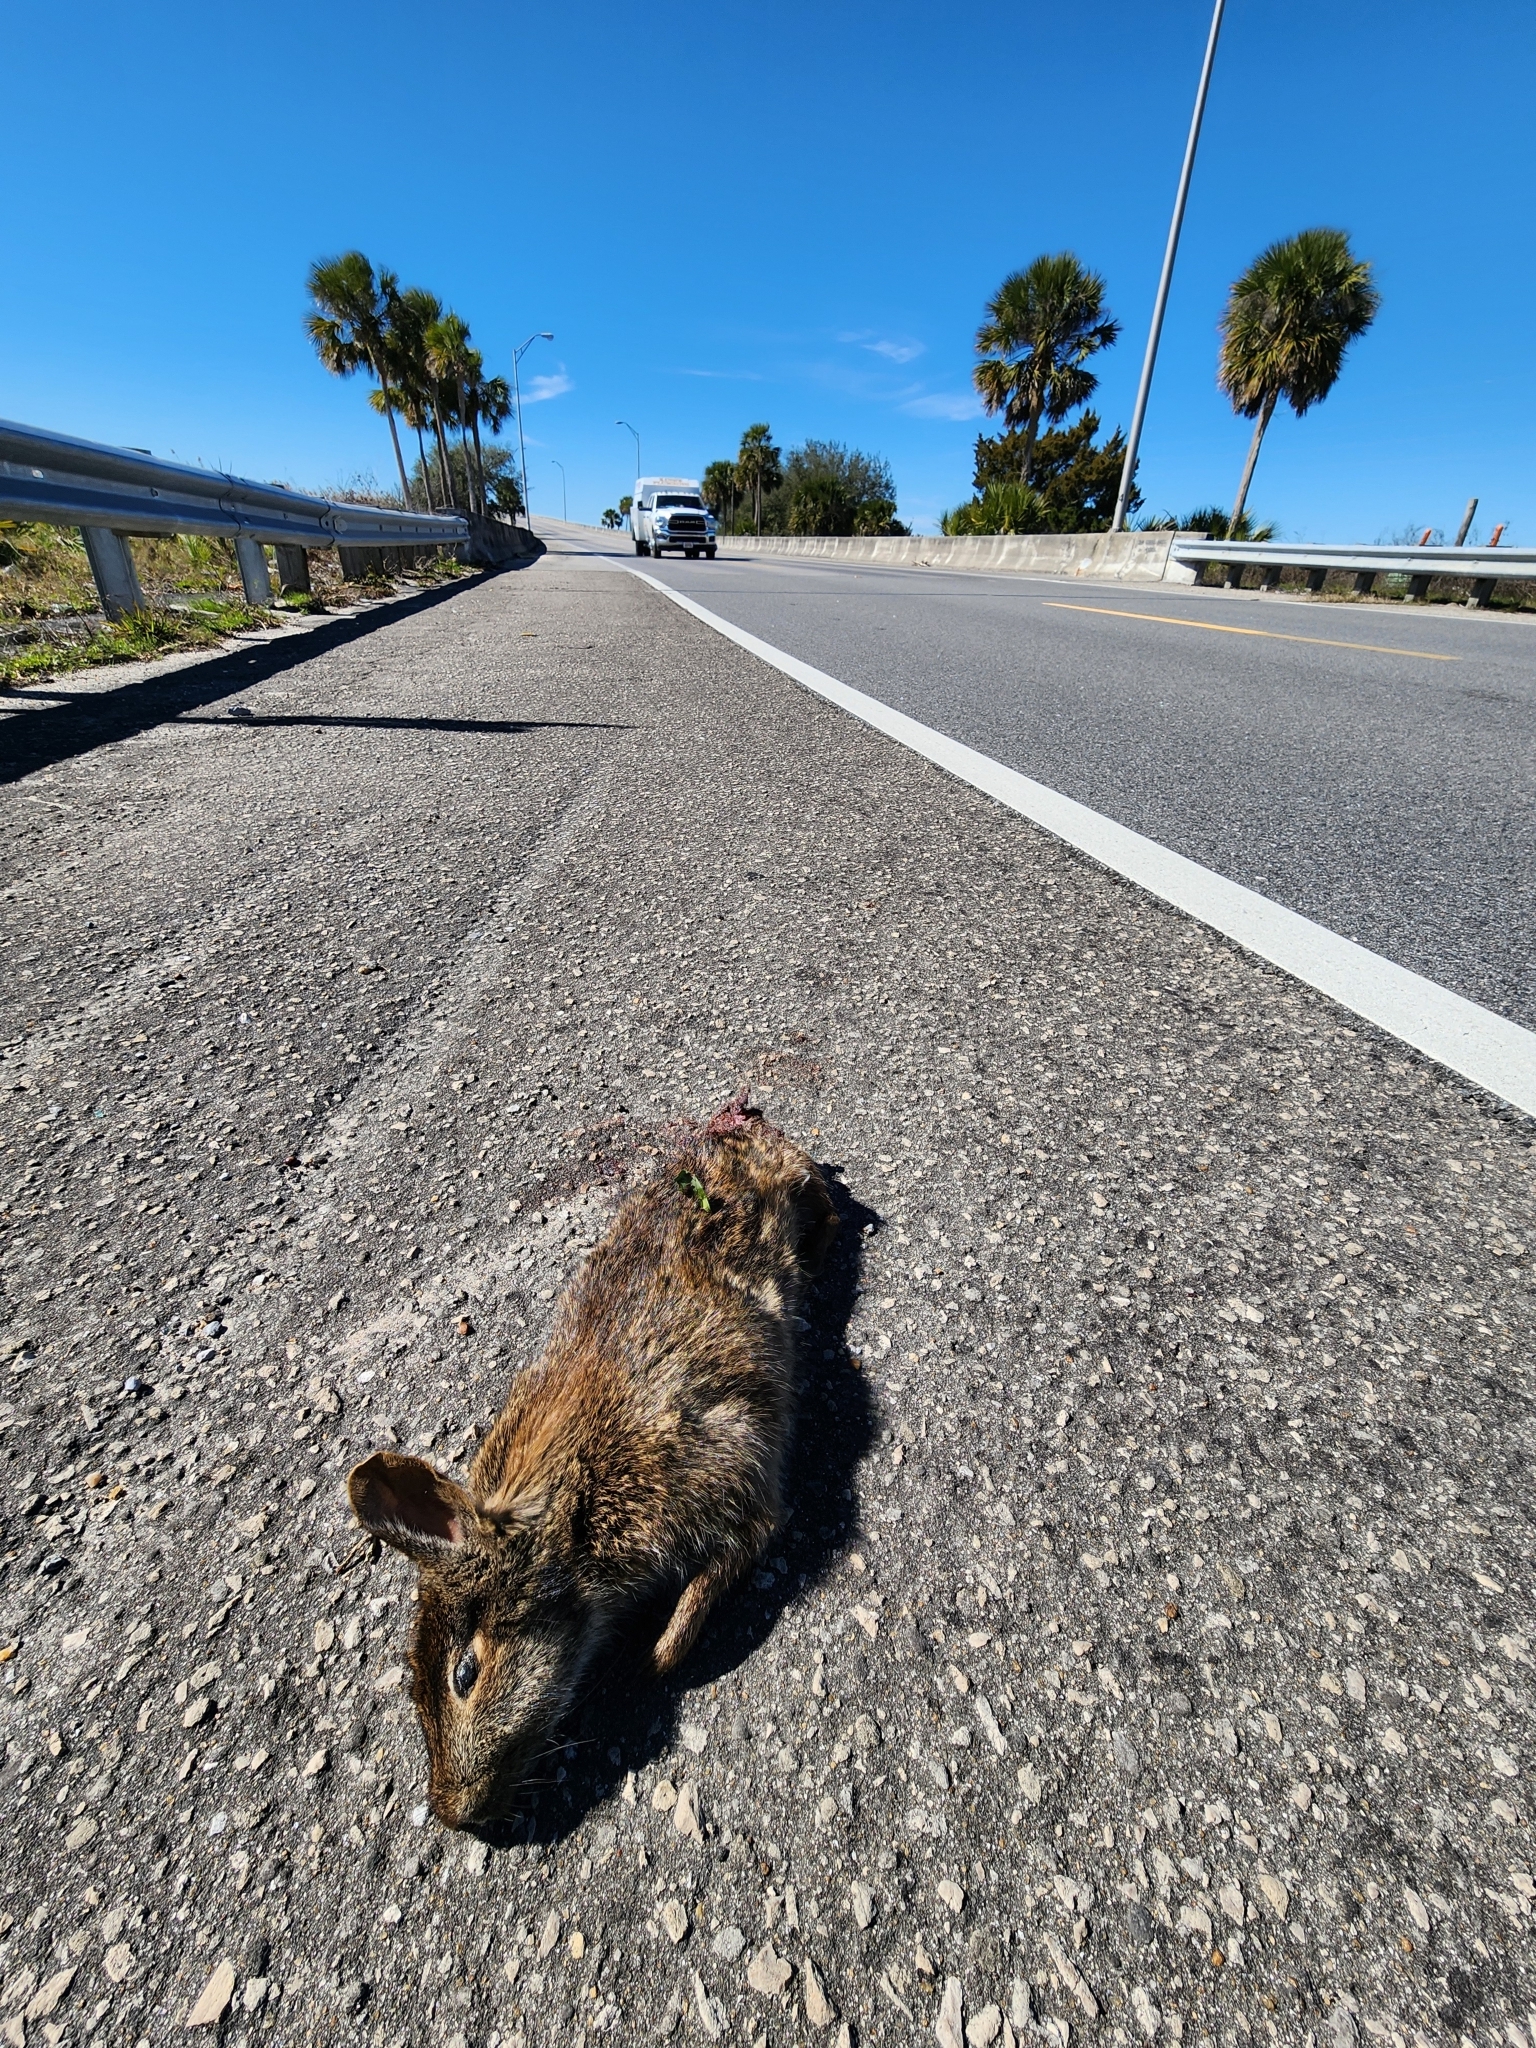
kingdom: Animalia
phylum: Chordata
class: Mammalia
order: Lagomorpha
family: Leporidae
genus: Sylvilagus
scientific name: Sylvilagus palustris
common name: Marsh rabbit
